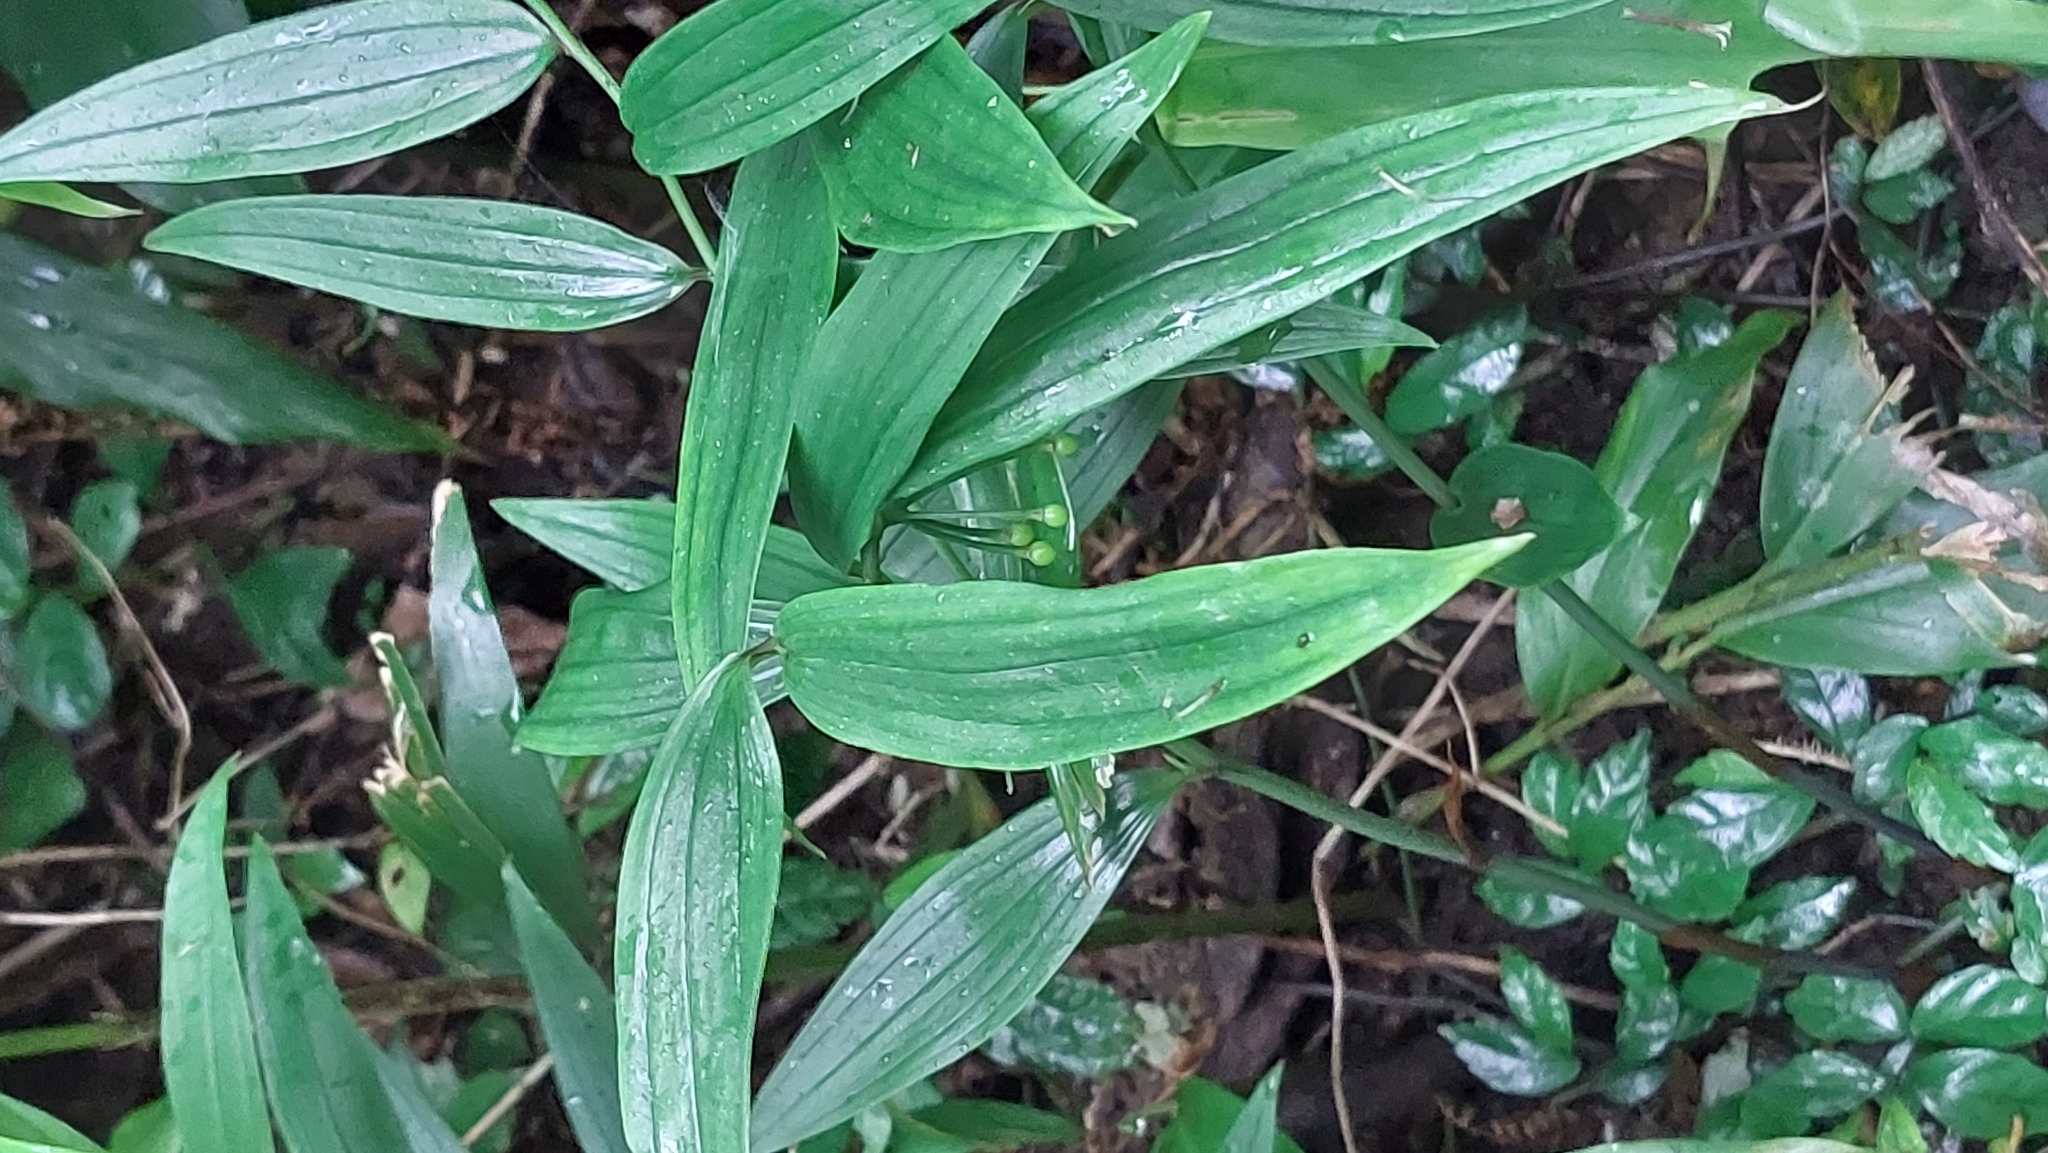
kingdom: Plantae
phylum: Tracheophyta
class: Liliopsida
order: Liliales
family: Colchicaceae
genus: Disporum
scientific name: Disporum shimadae
